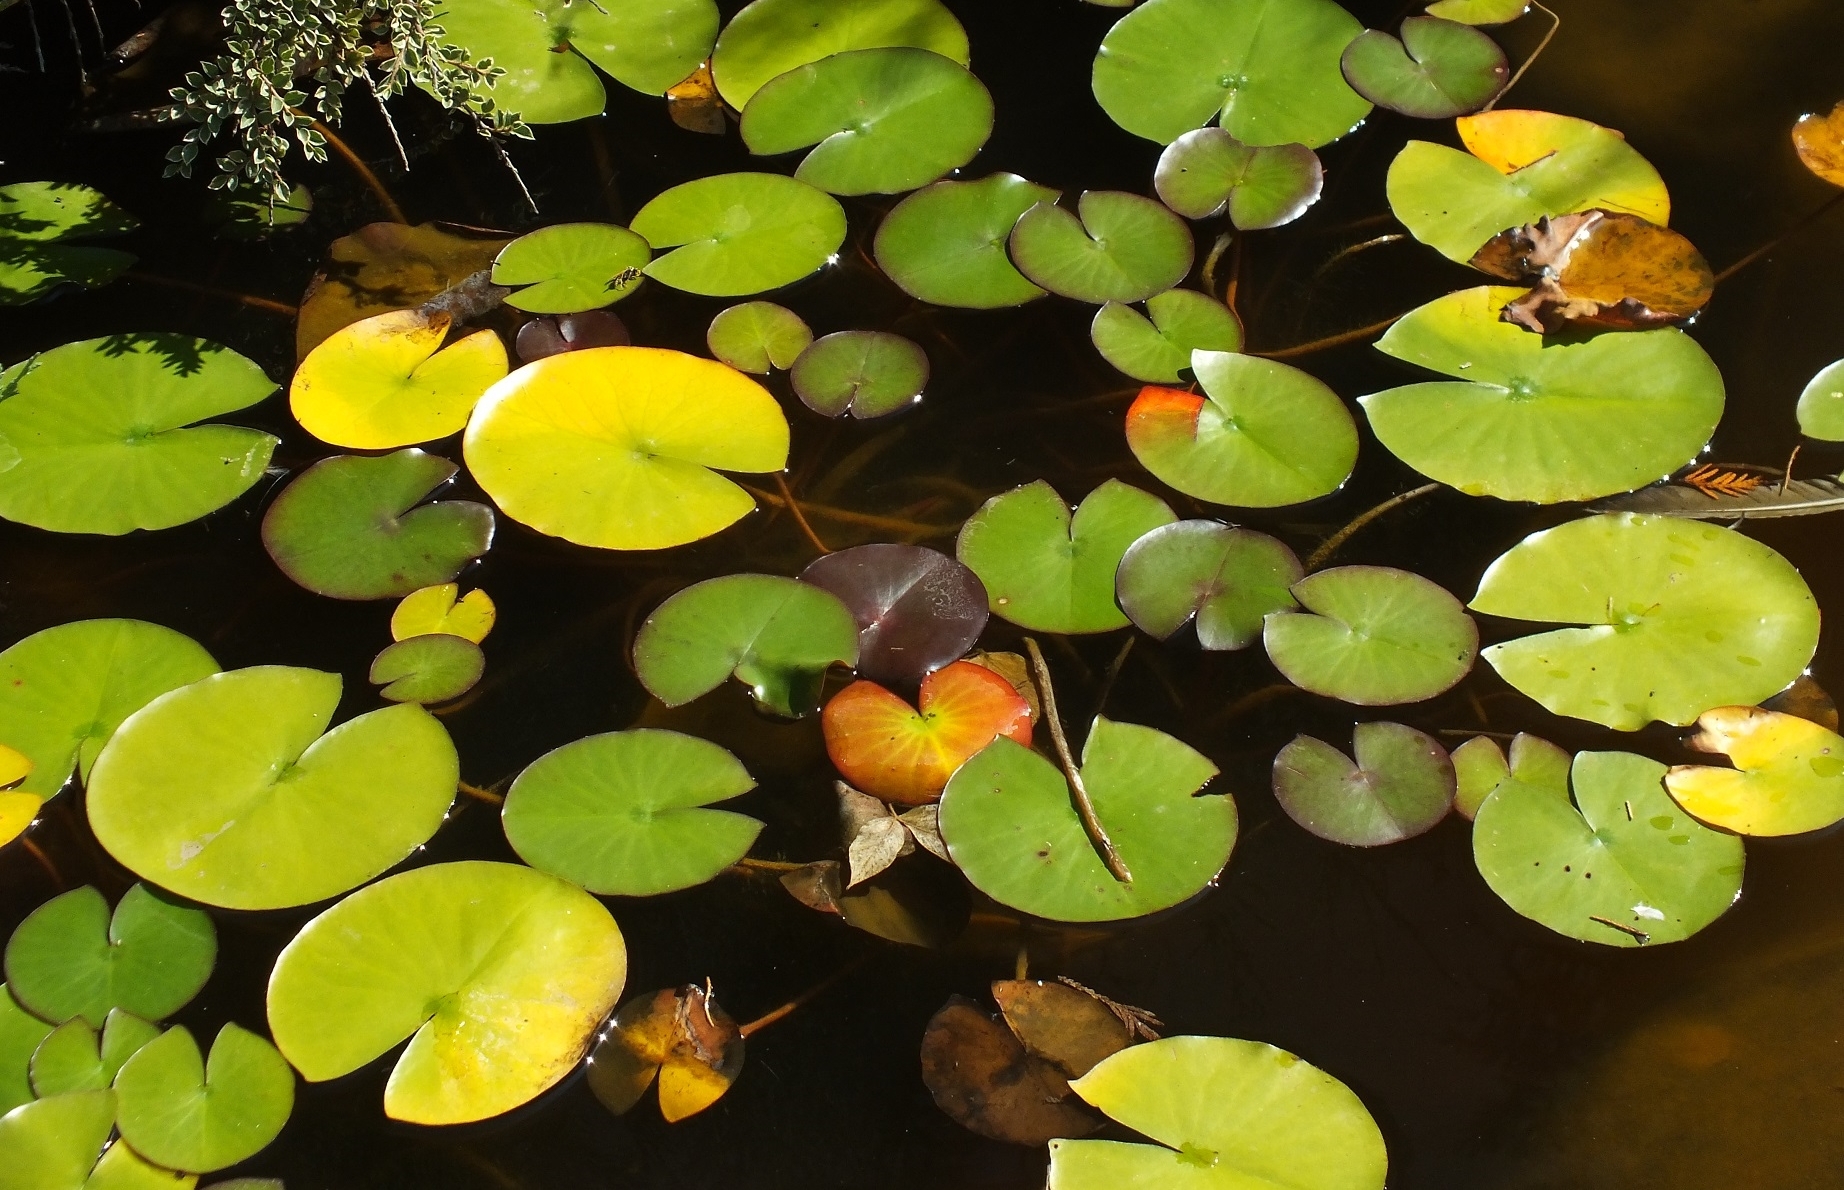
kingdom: Plantae
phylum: Tracheophyta
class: Magnoliopsida
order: Nymphaeales
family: Nymphaeaceae
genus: Nymphaea
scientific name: Nymphaea alba
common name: White water-lily
